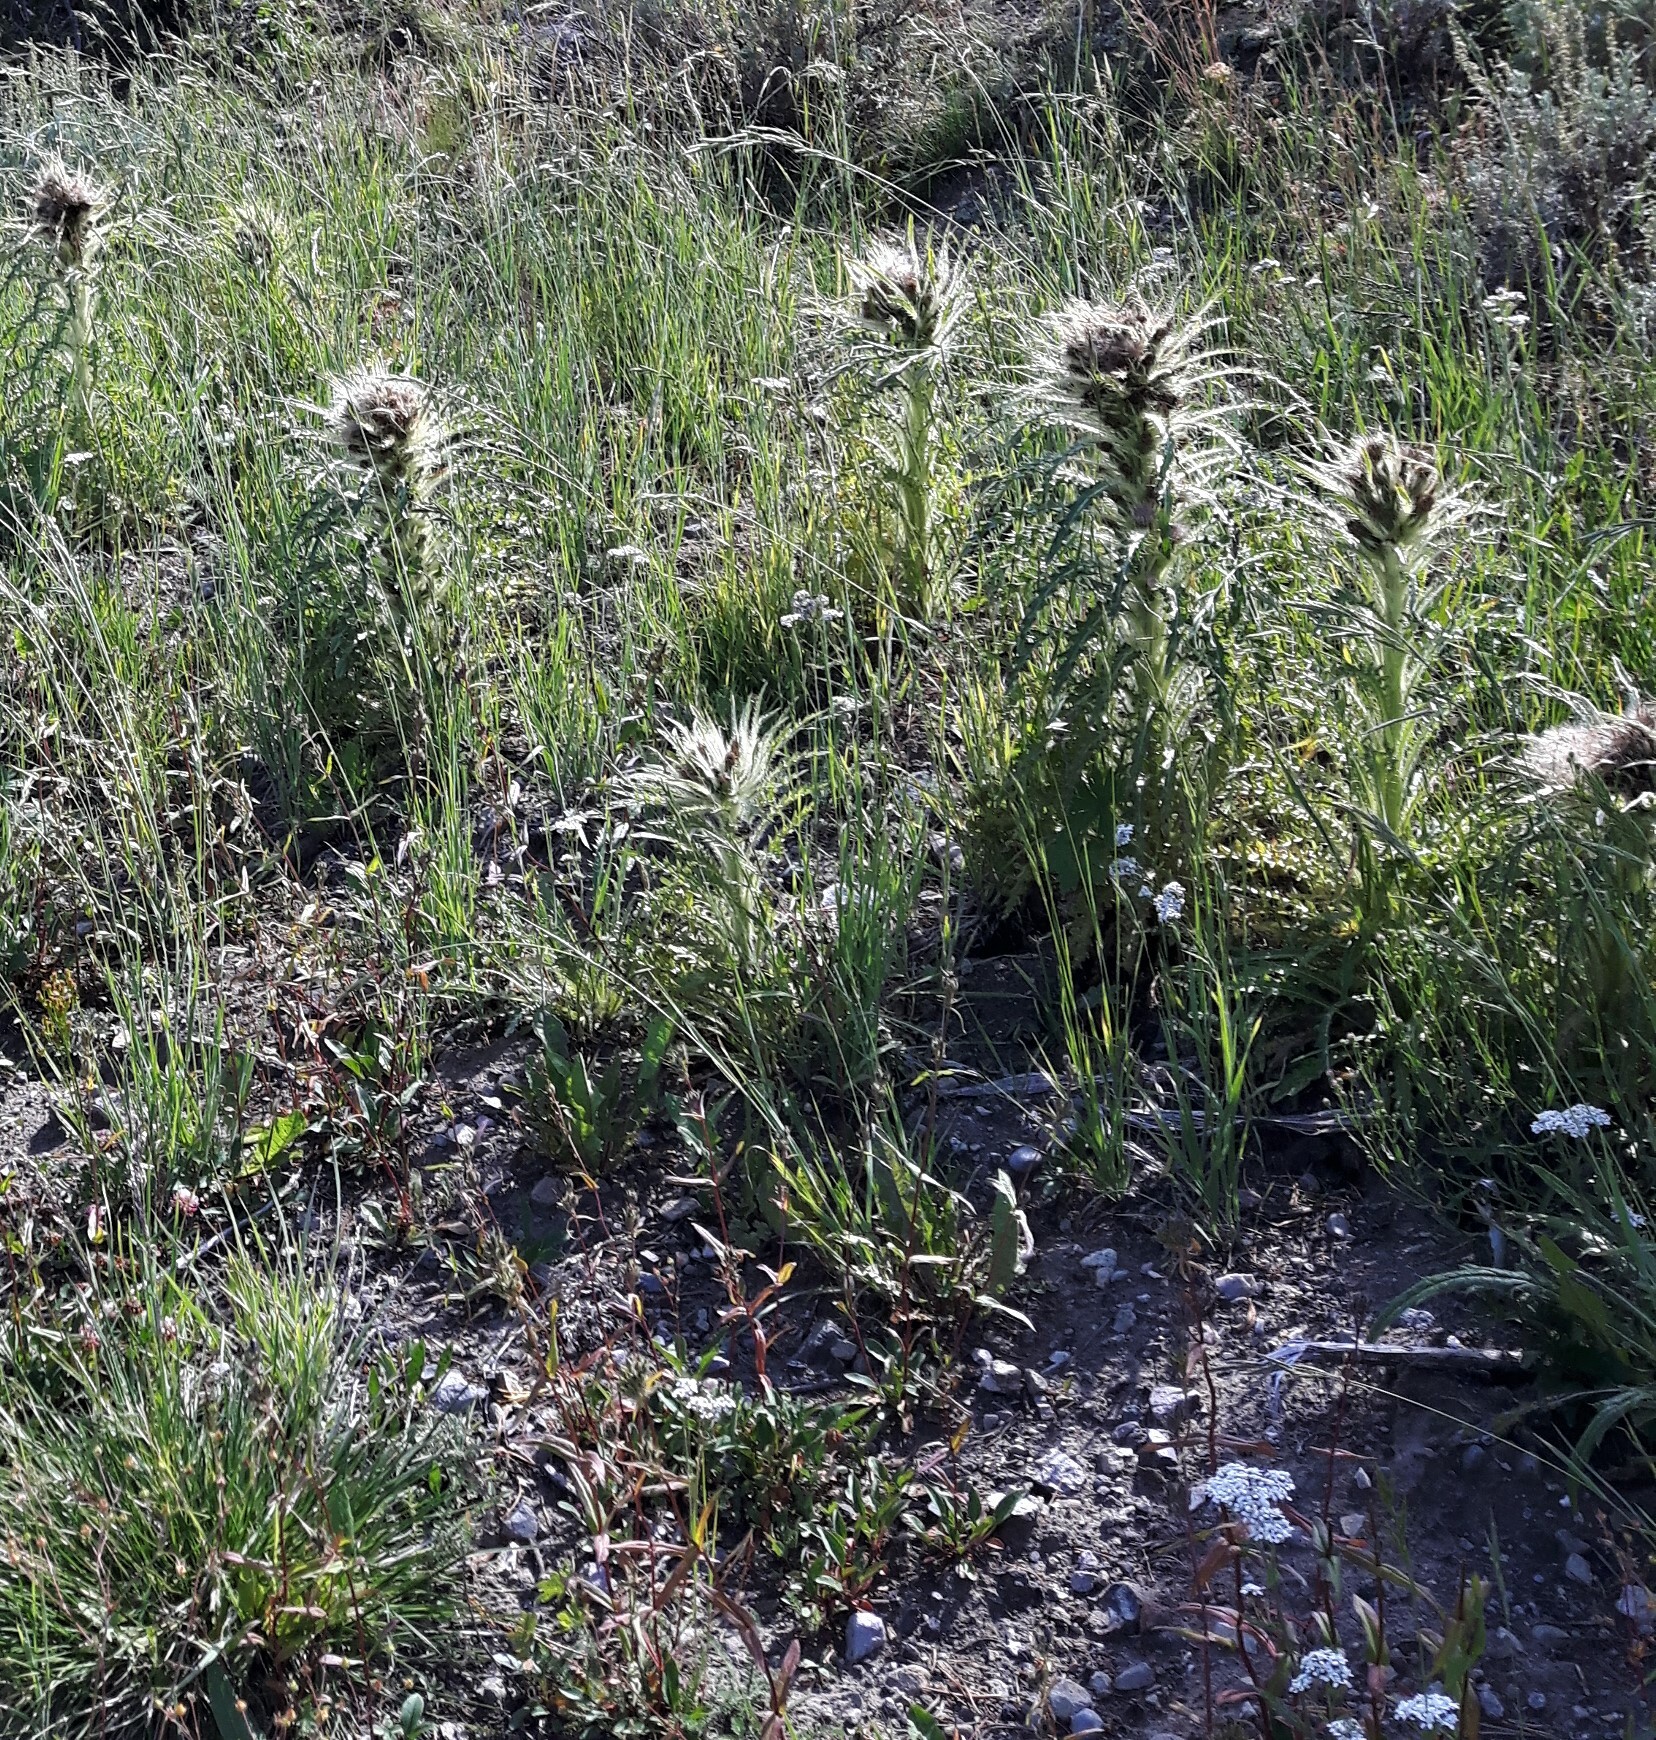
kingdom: Plantae
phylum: Tracheophyta
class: Magnoliopsida
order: Asterales
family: Asteraceae
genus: Cirsium
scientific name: Cirsium scariosum
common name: Meadow thistle
